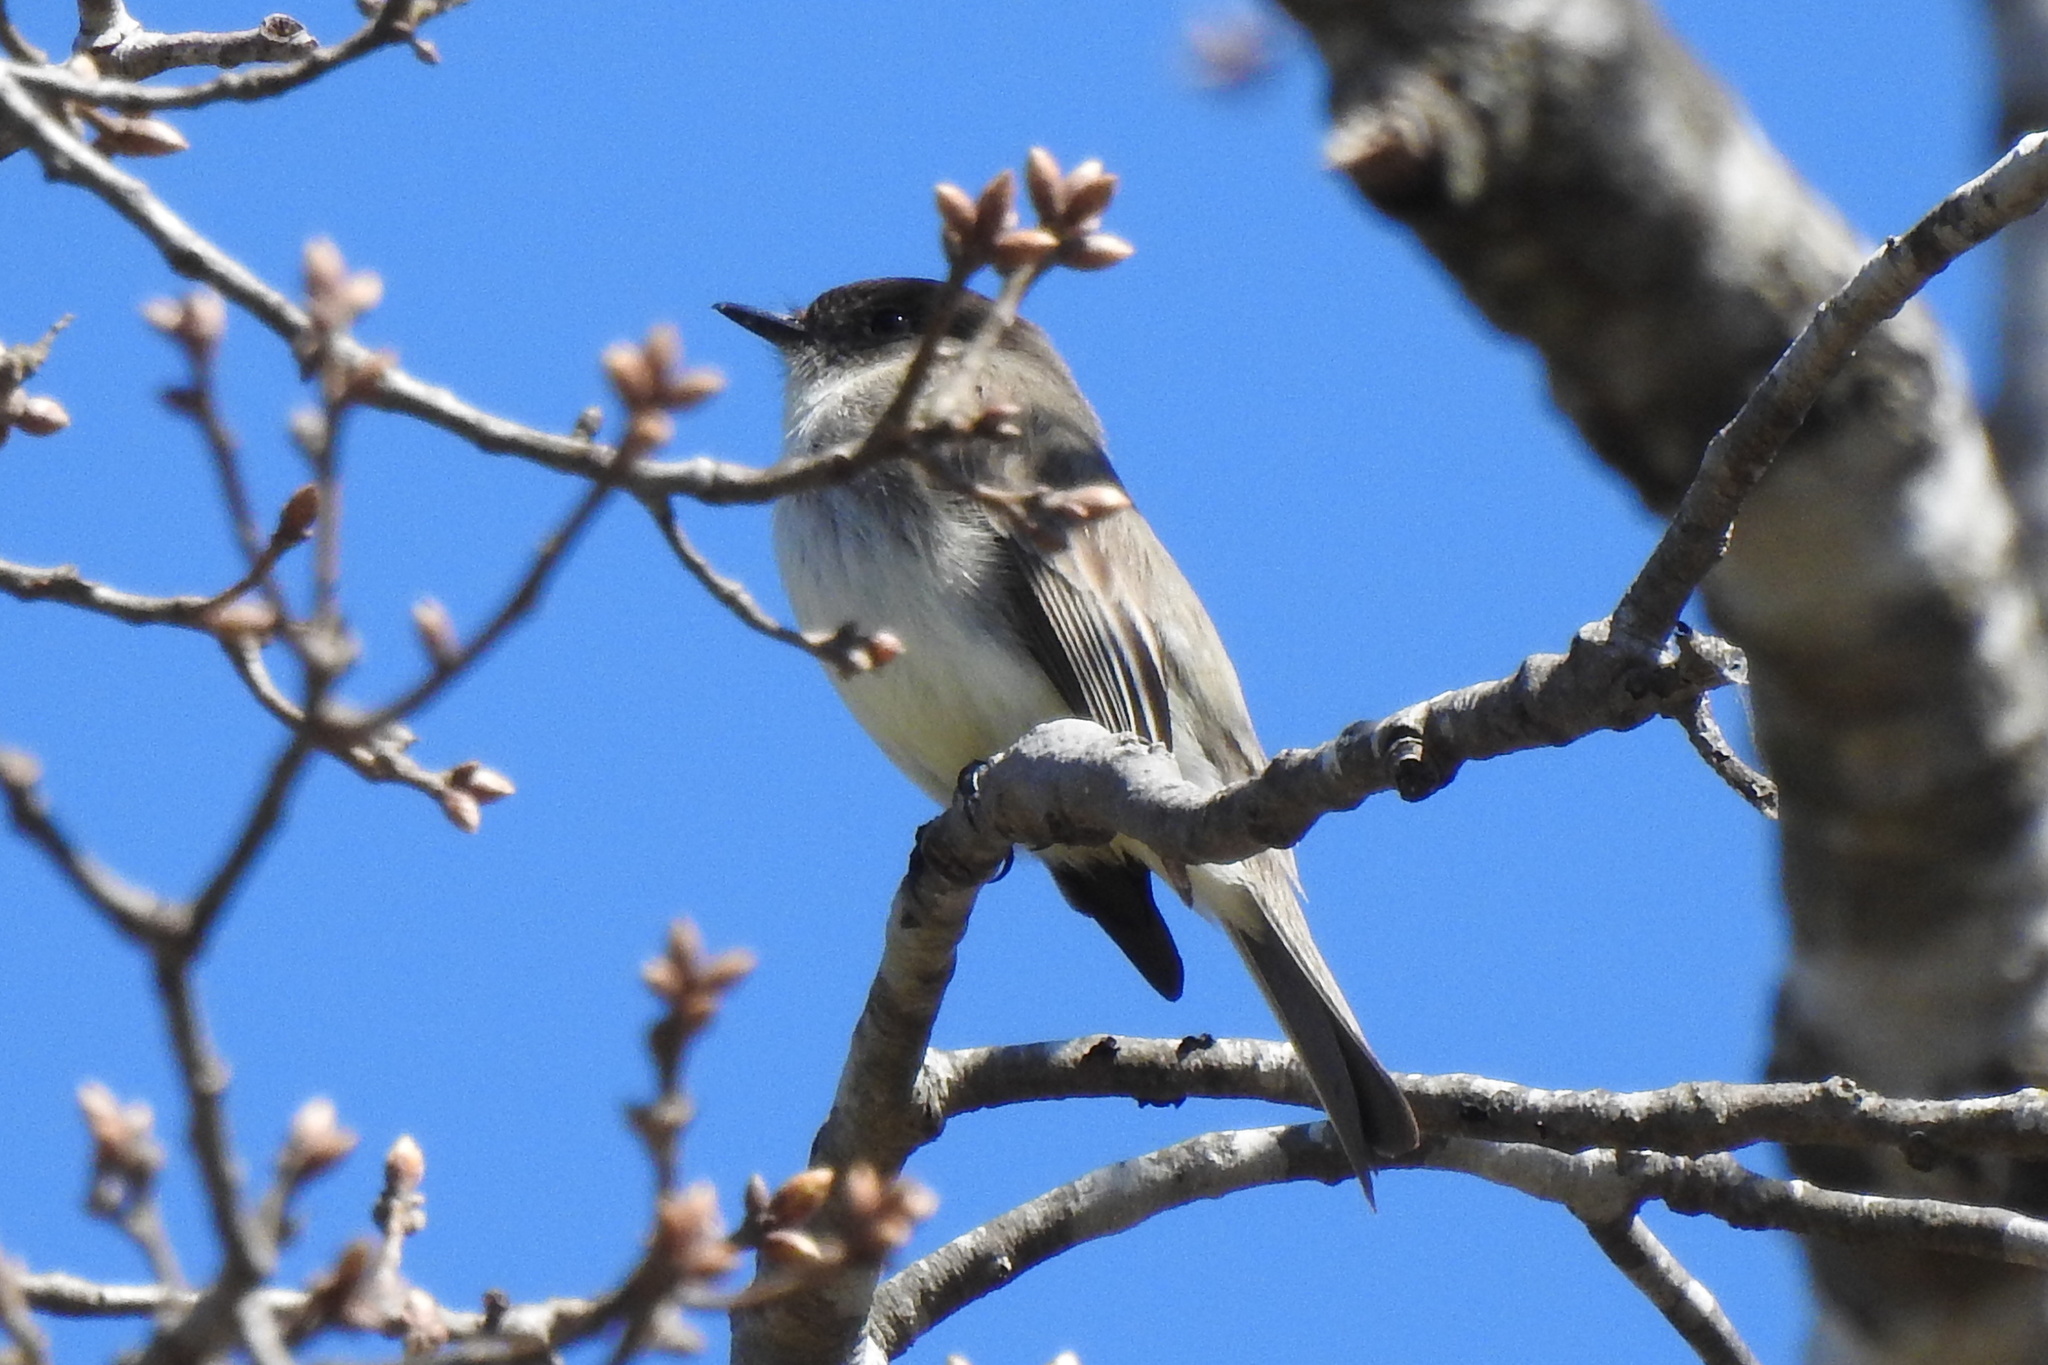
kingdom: Animalia
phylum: Chordata
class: Aves
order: Passeriformes
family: Tyrannidae
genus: Sayornis
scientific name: Sayornis phoebe
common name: Eastern phoebe
